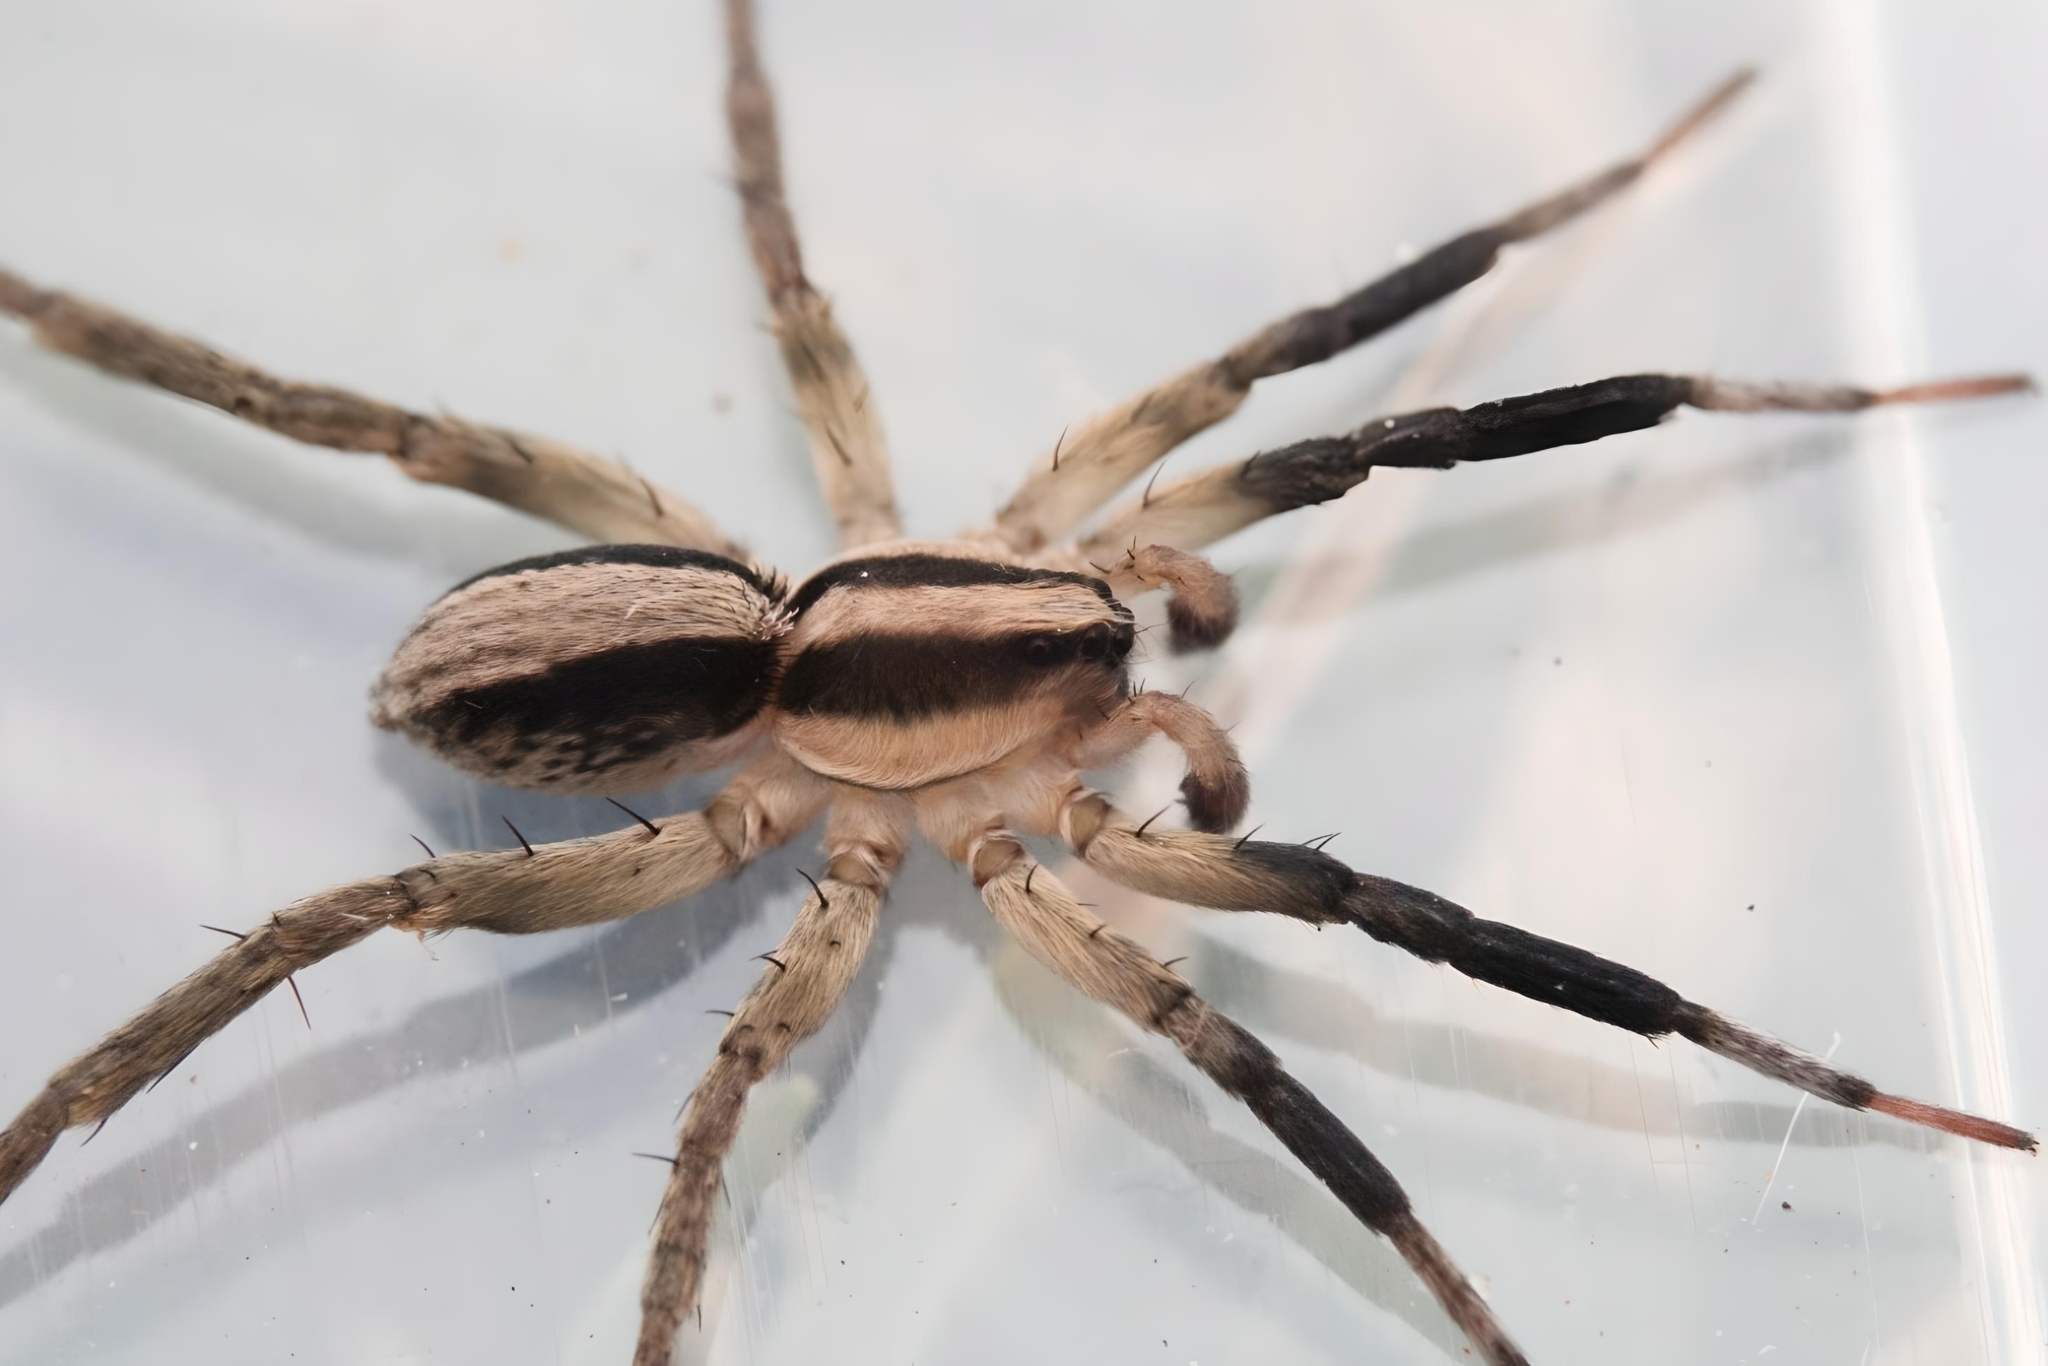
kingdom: Animalia
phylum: Arthropoda
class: Arachnida
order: Araneae
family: Lycosidae
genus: Allocosa
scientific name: Allocosa lawrencei
